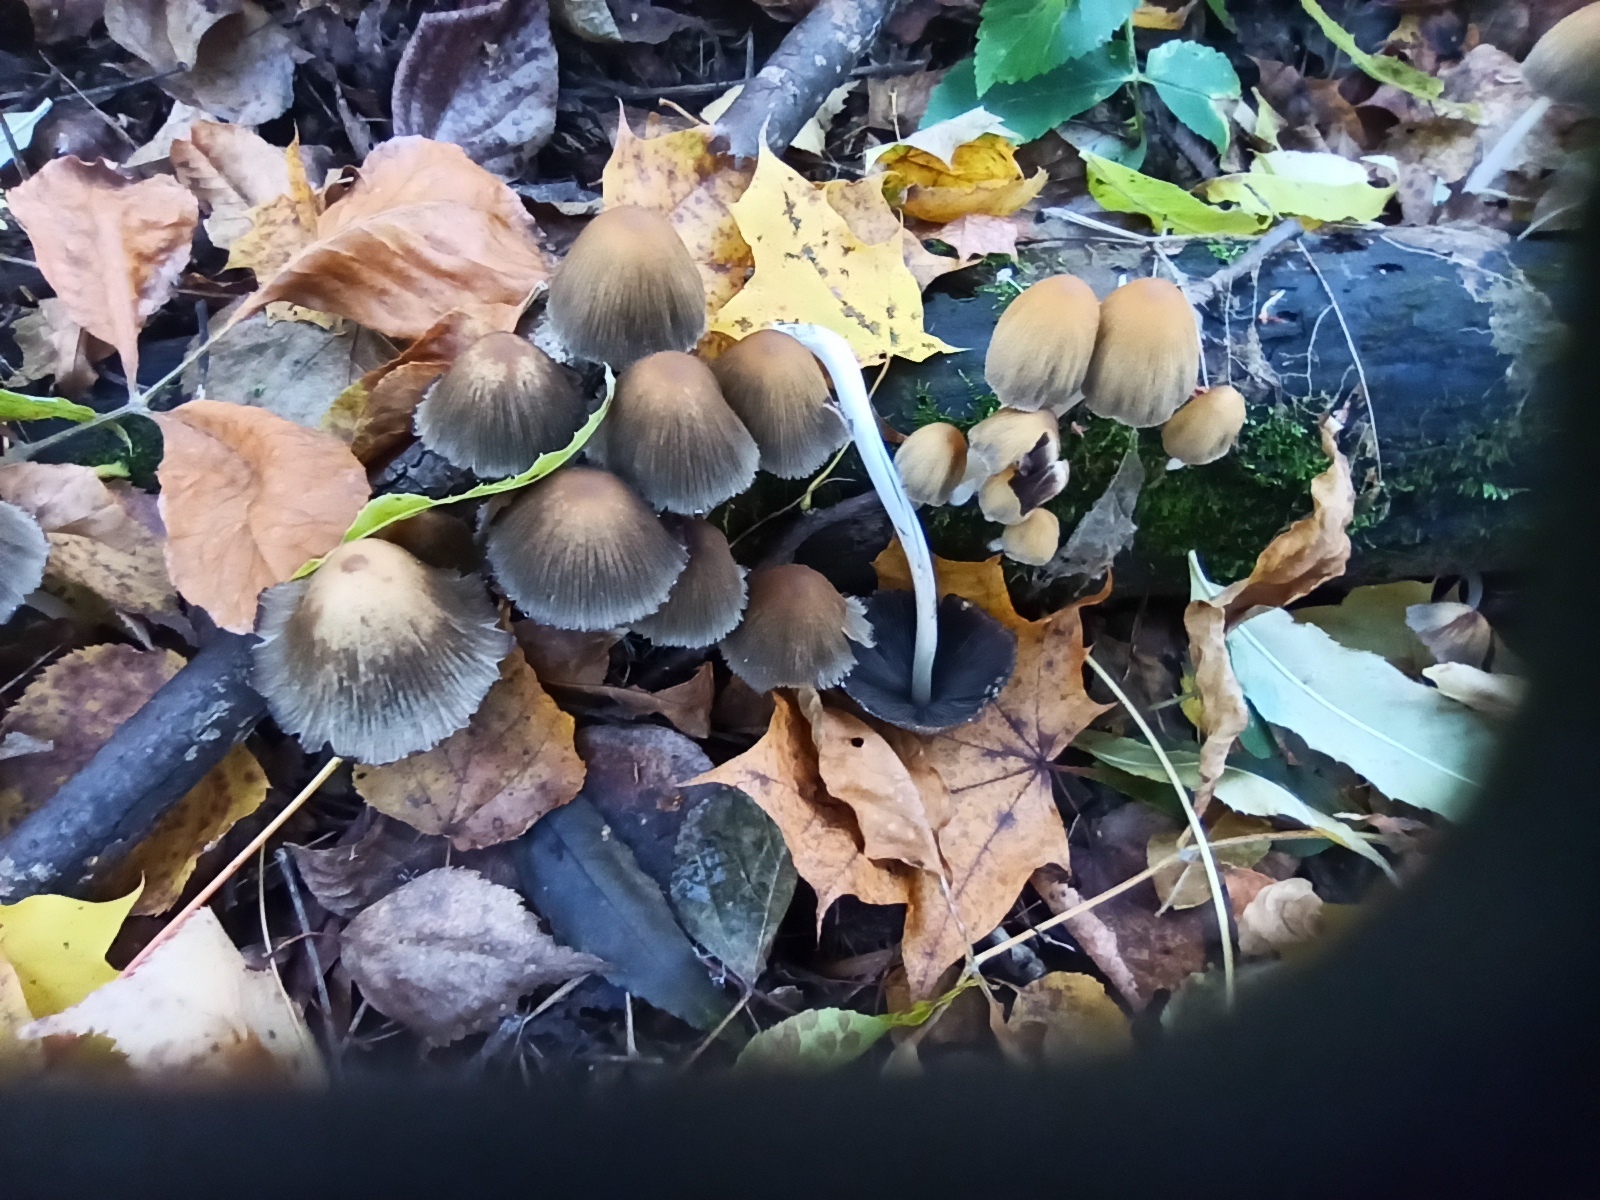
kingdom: Fungi
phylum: Basidiomycota
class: Agaricomycetes
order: Agaricales
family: Psathyrellaceae
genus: Coprinellus
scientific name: Coprinellus micaceus
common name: Glistening ink-cap
